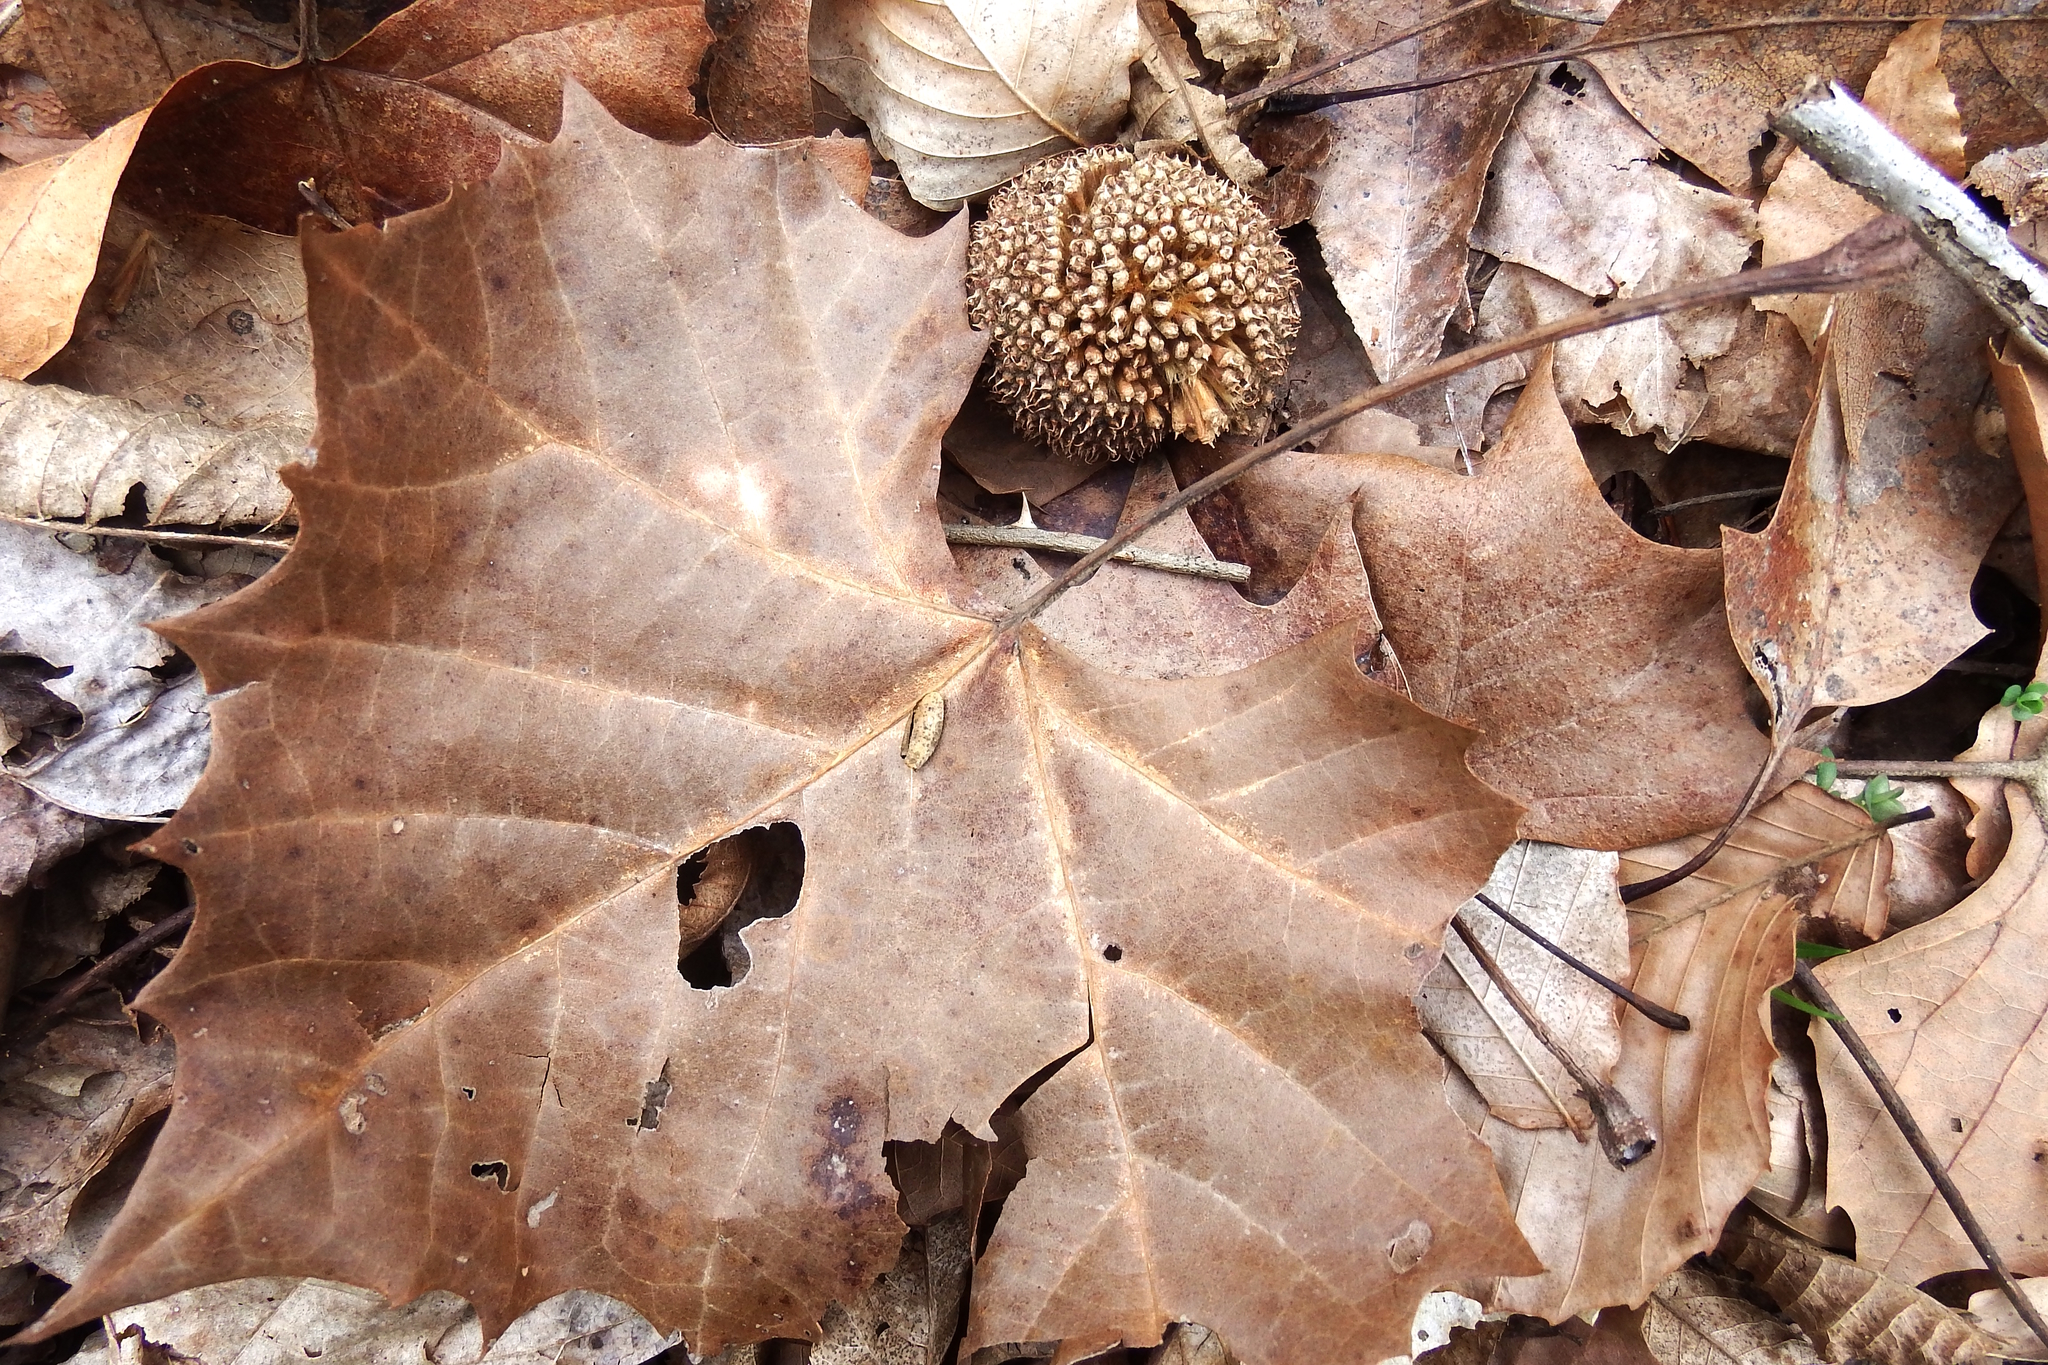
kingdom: Plantae
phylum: Tracheophyta
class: Magnoliopsida
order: Proteales
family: Platanaceae
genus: Platanus
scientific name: Platanus occidentalis
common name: American sycamore
